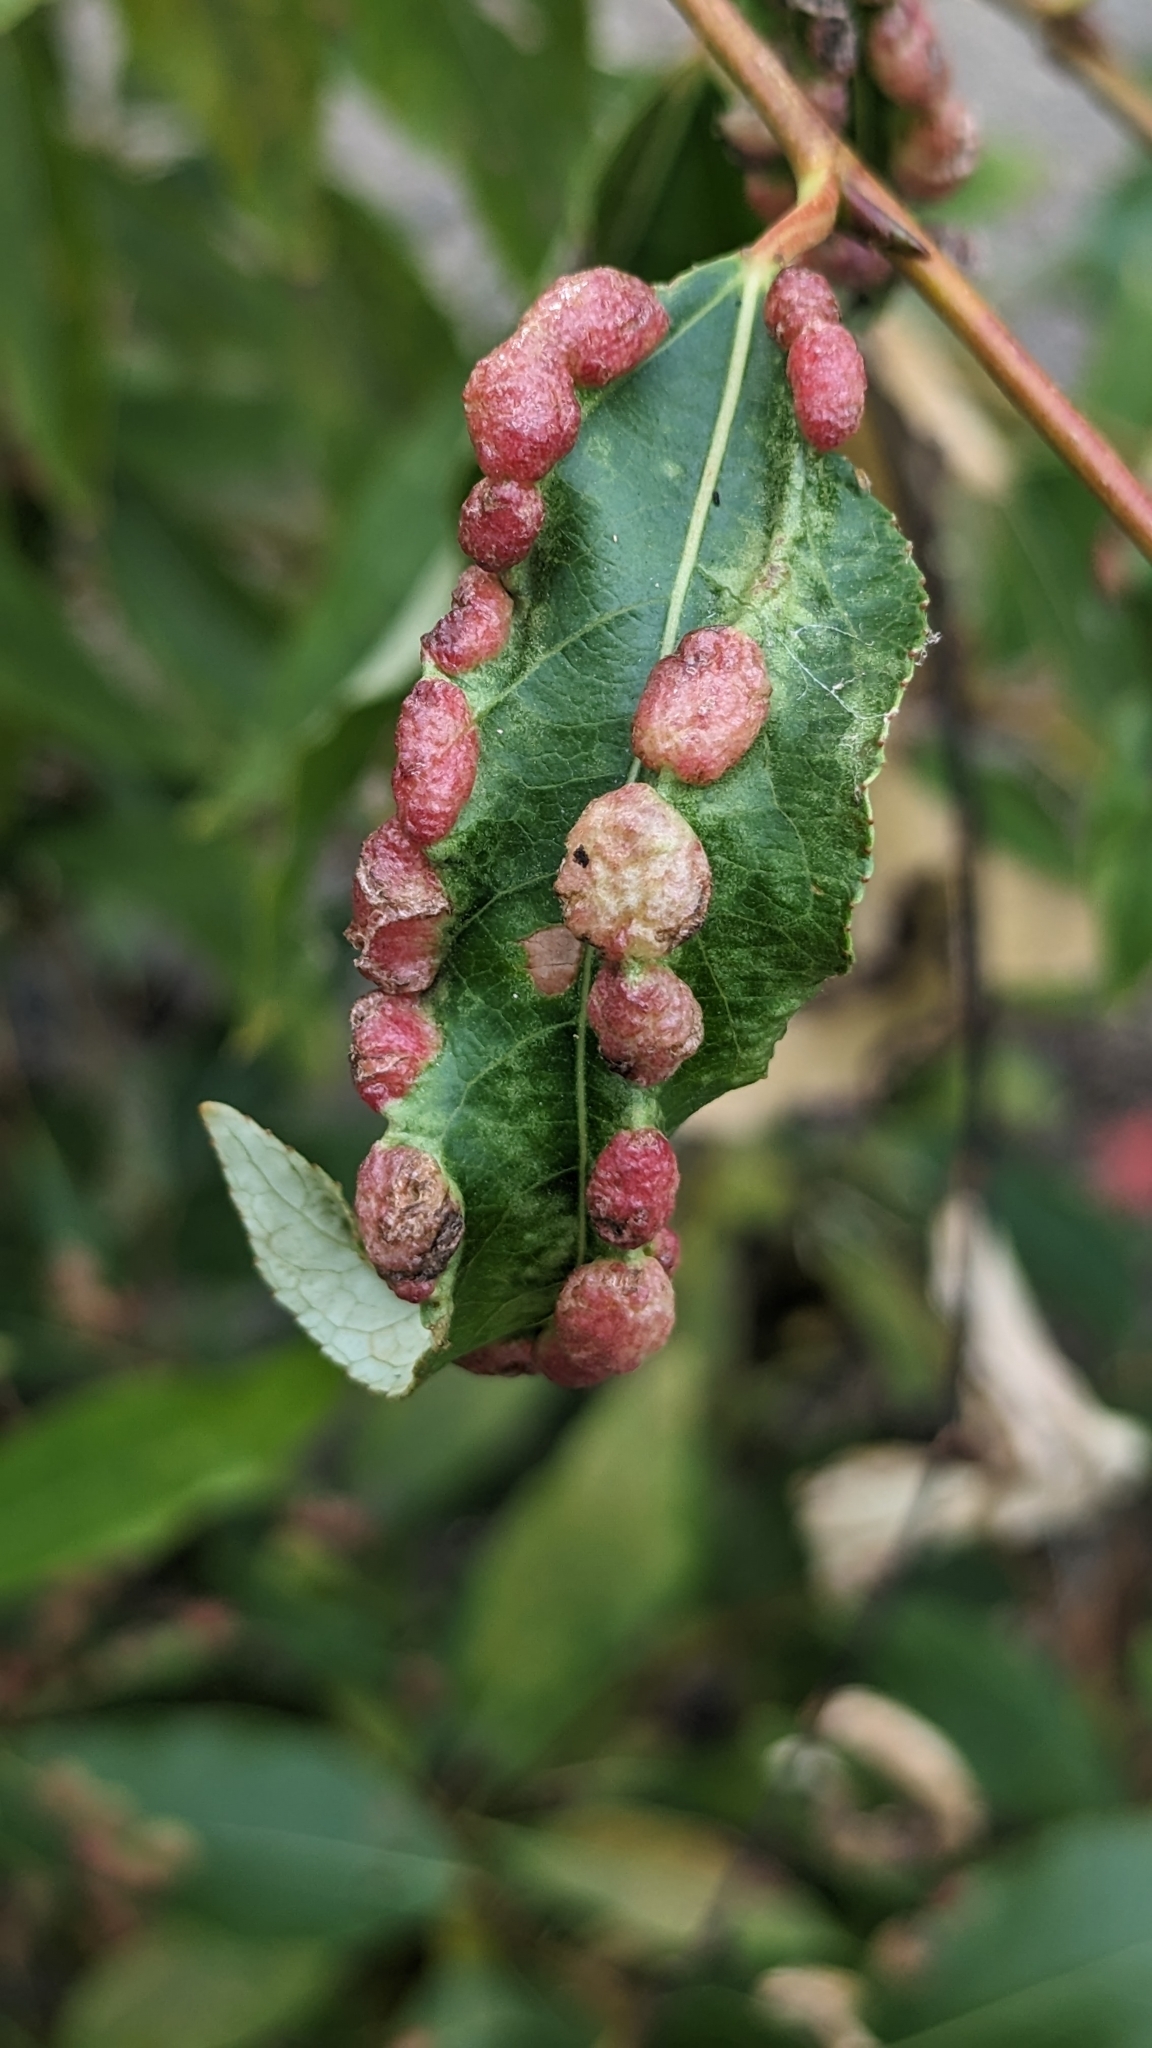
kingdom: Animalia
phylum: Arthropoda
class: Insecta
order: Hemiptera
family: Aphididae
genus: Thecabius
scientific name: Thecabius populimonilis
